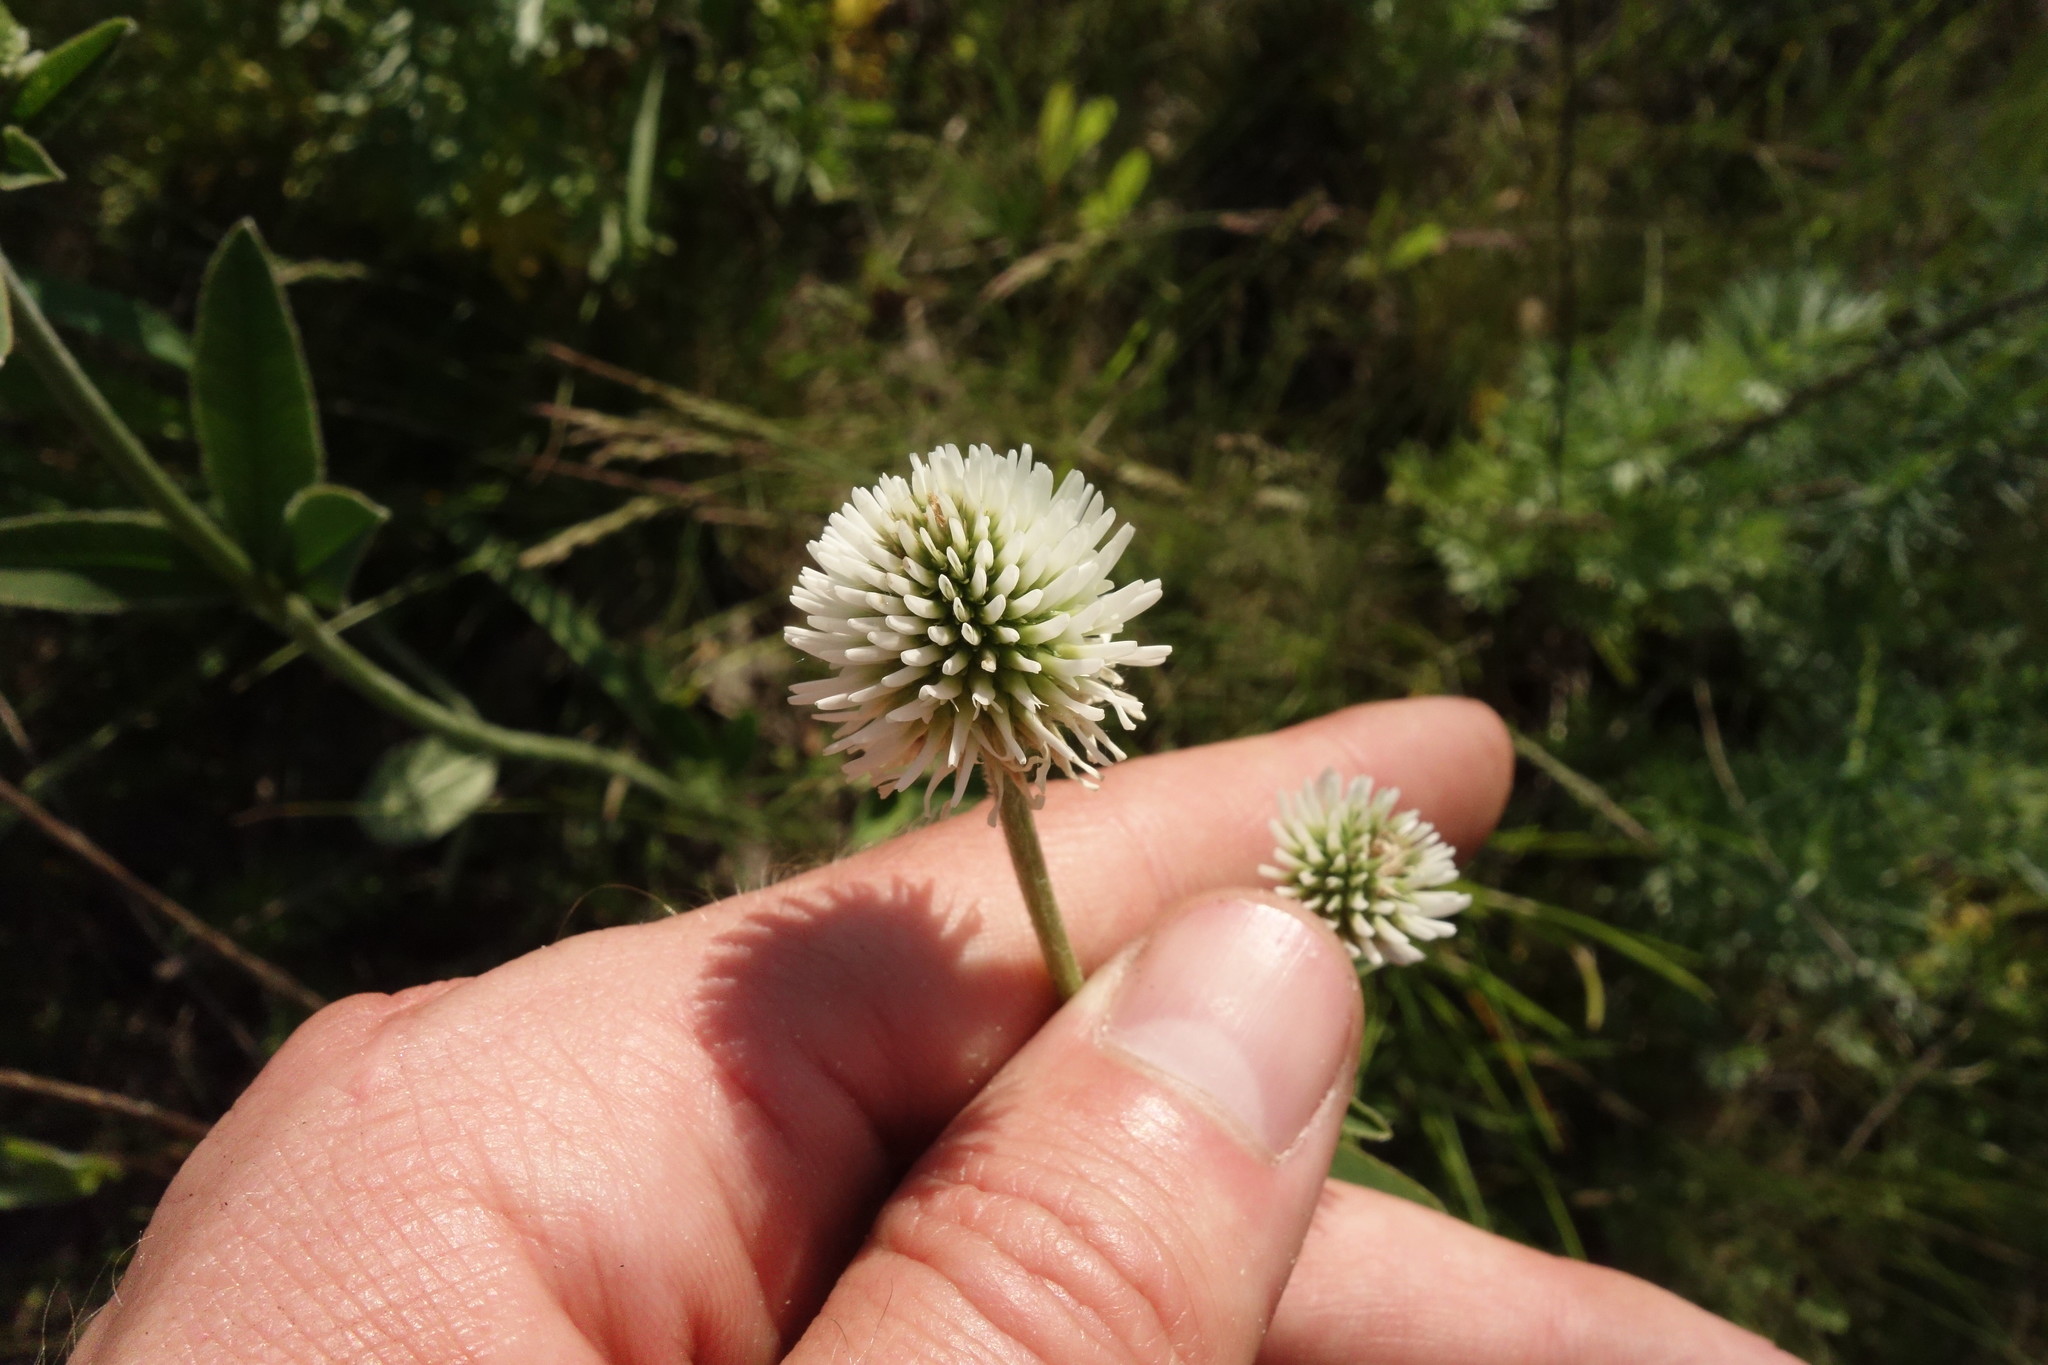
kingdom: Plantae
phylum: Tracheophyta
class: Magnoliopsida
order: Fabales
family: Fabaceae
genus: Trifolium
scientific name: Trifolium montanum
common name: Mountain clover
